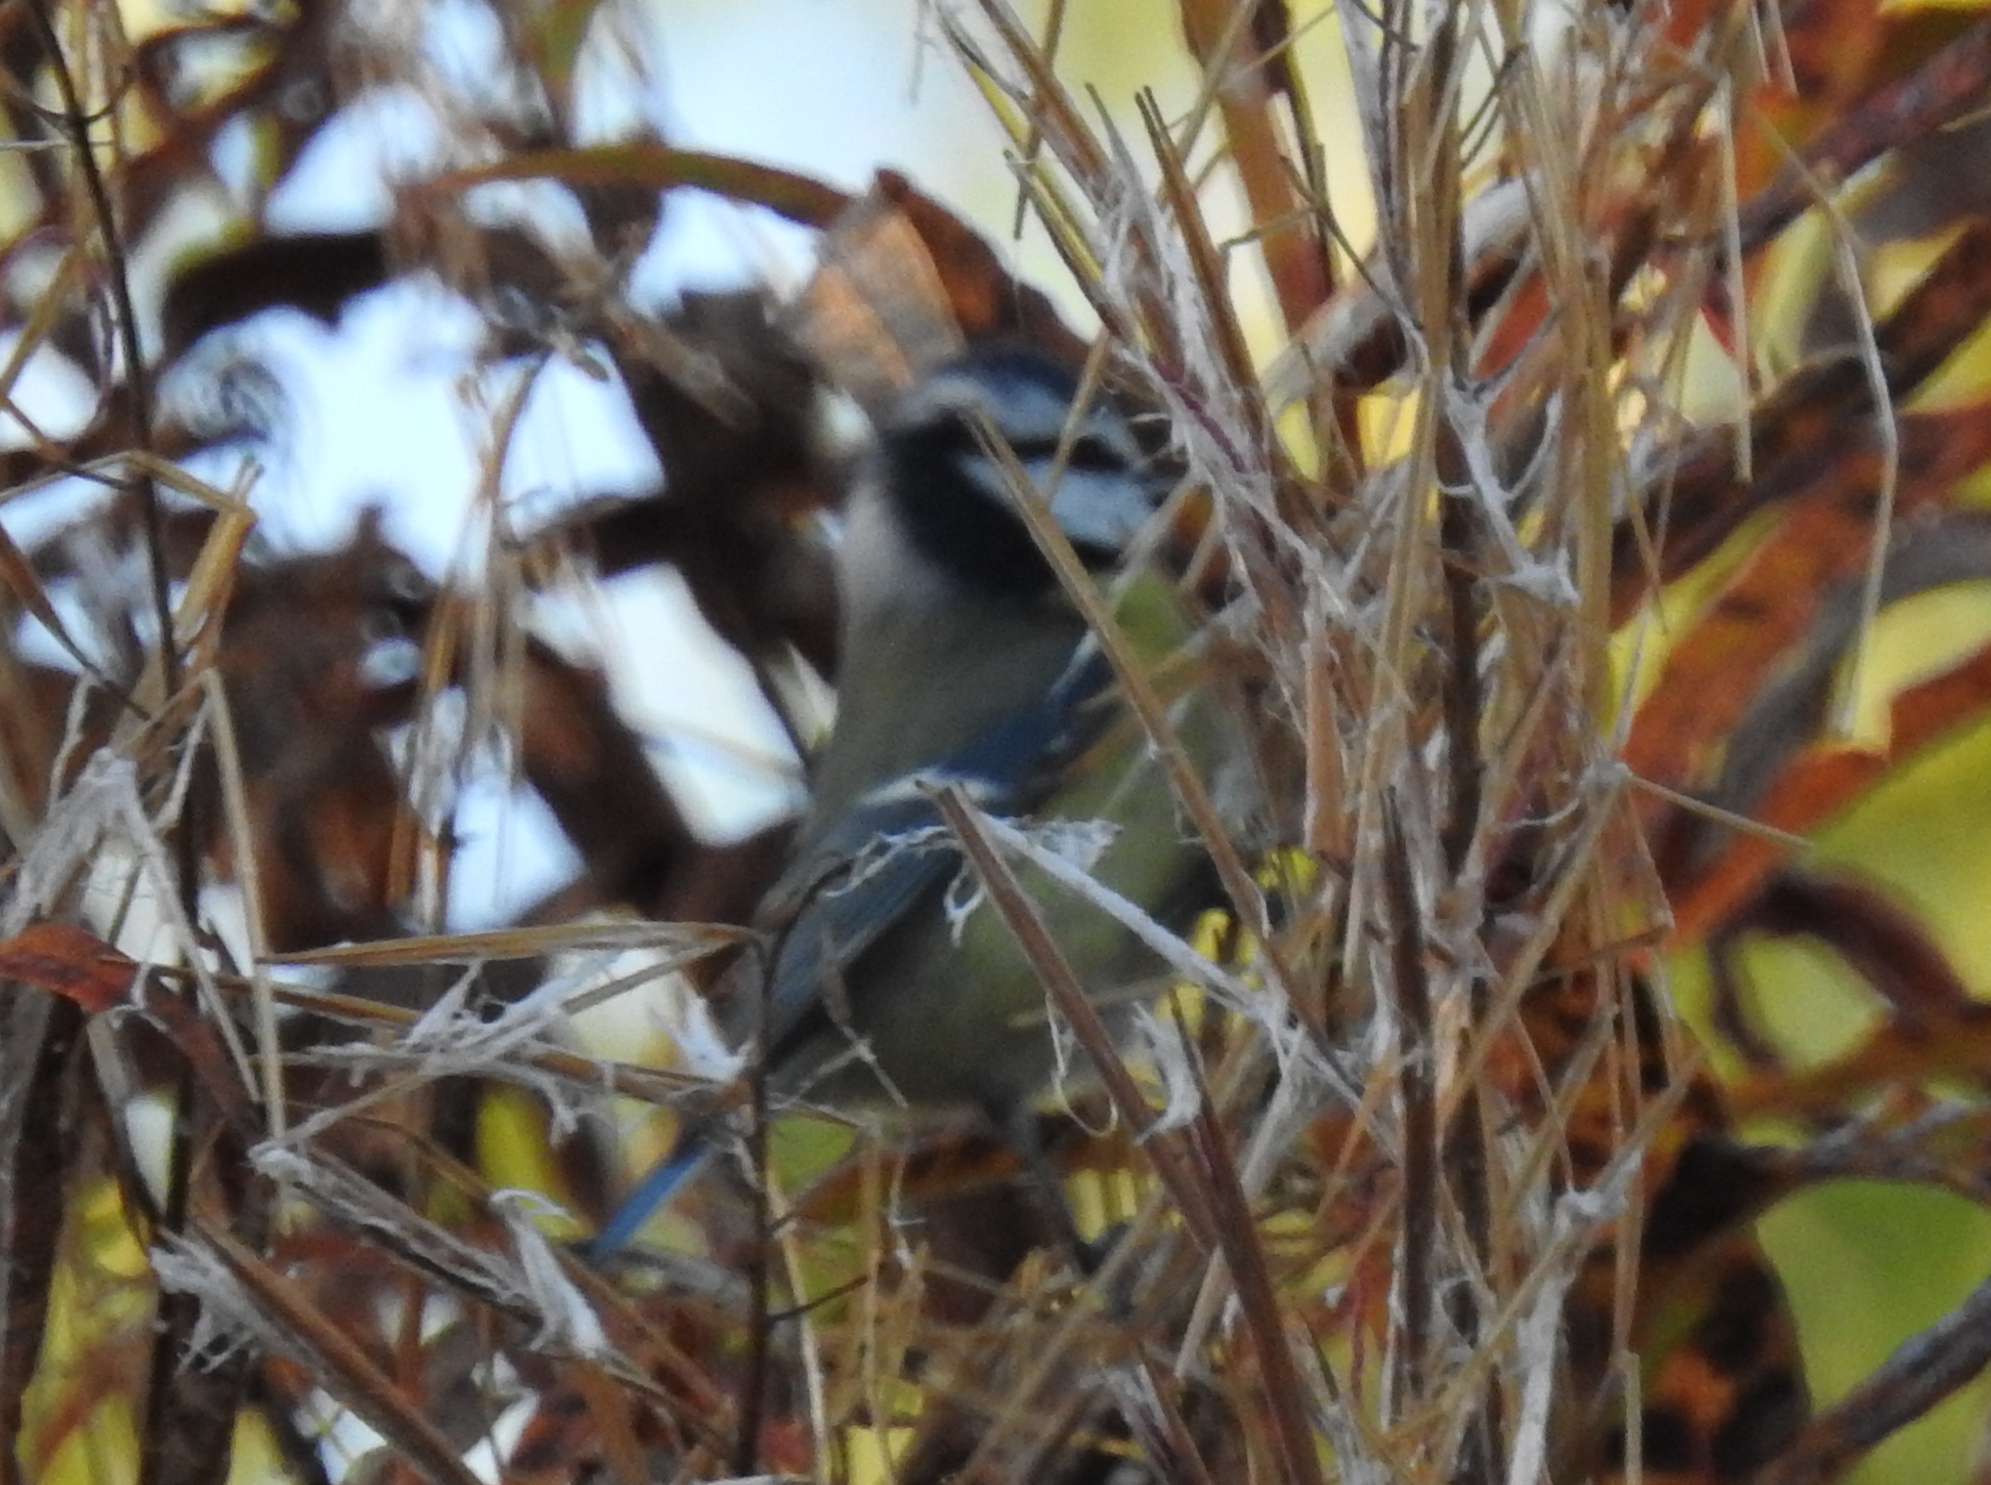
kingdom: Animalia
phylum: Chordata
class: Aves
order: Passeriformes
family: Paridae
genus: Cyanistes
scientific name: Cyanistes caeruleus
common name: Eurasian blue tit
